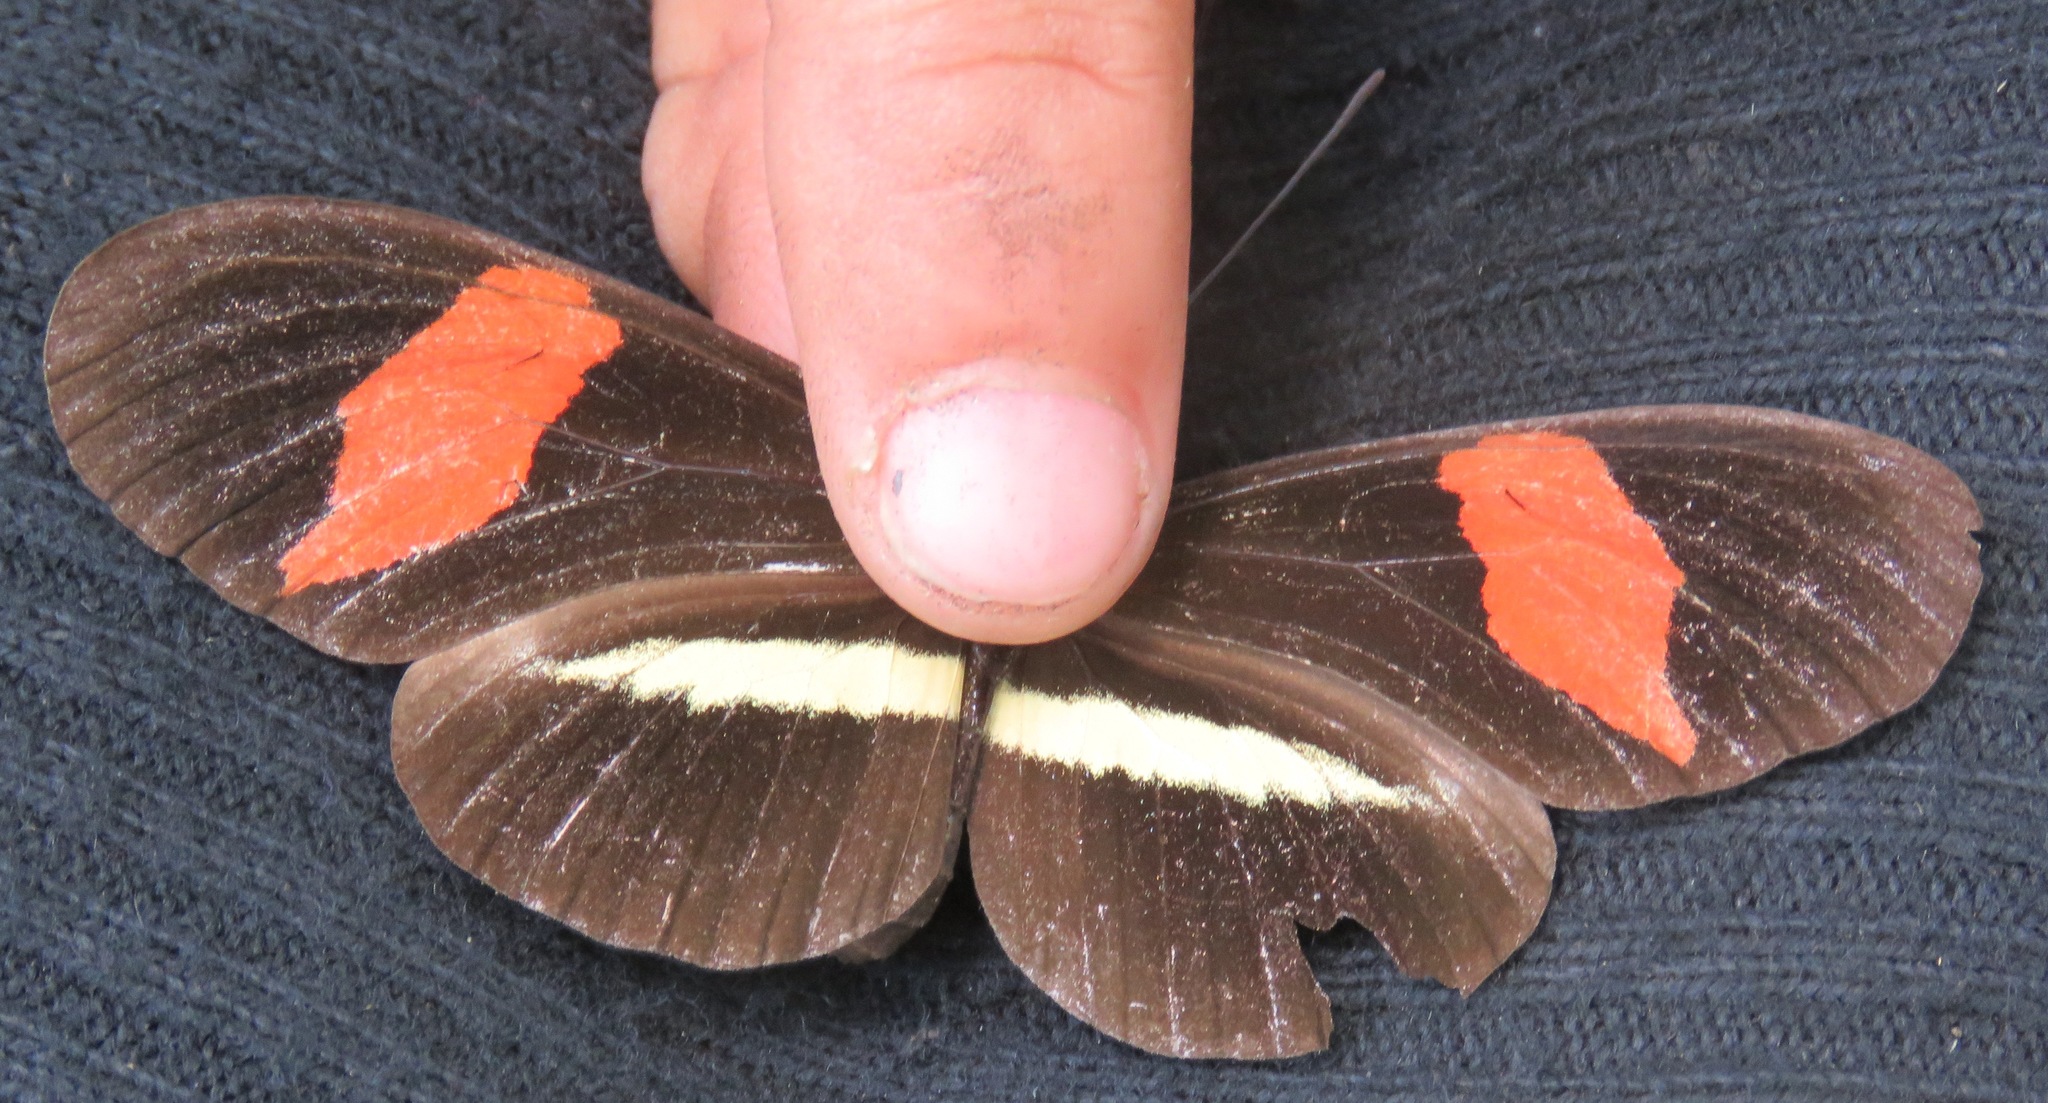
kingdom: Animalia
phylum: Arthropoda
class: Insecta
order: Lepidoptera
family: Nymphalidae
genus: Tirumala
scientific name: Tirumala petiverana
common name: Blue monarch
